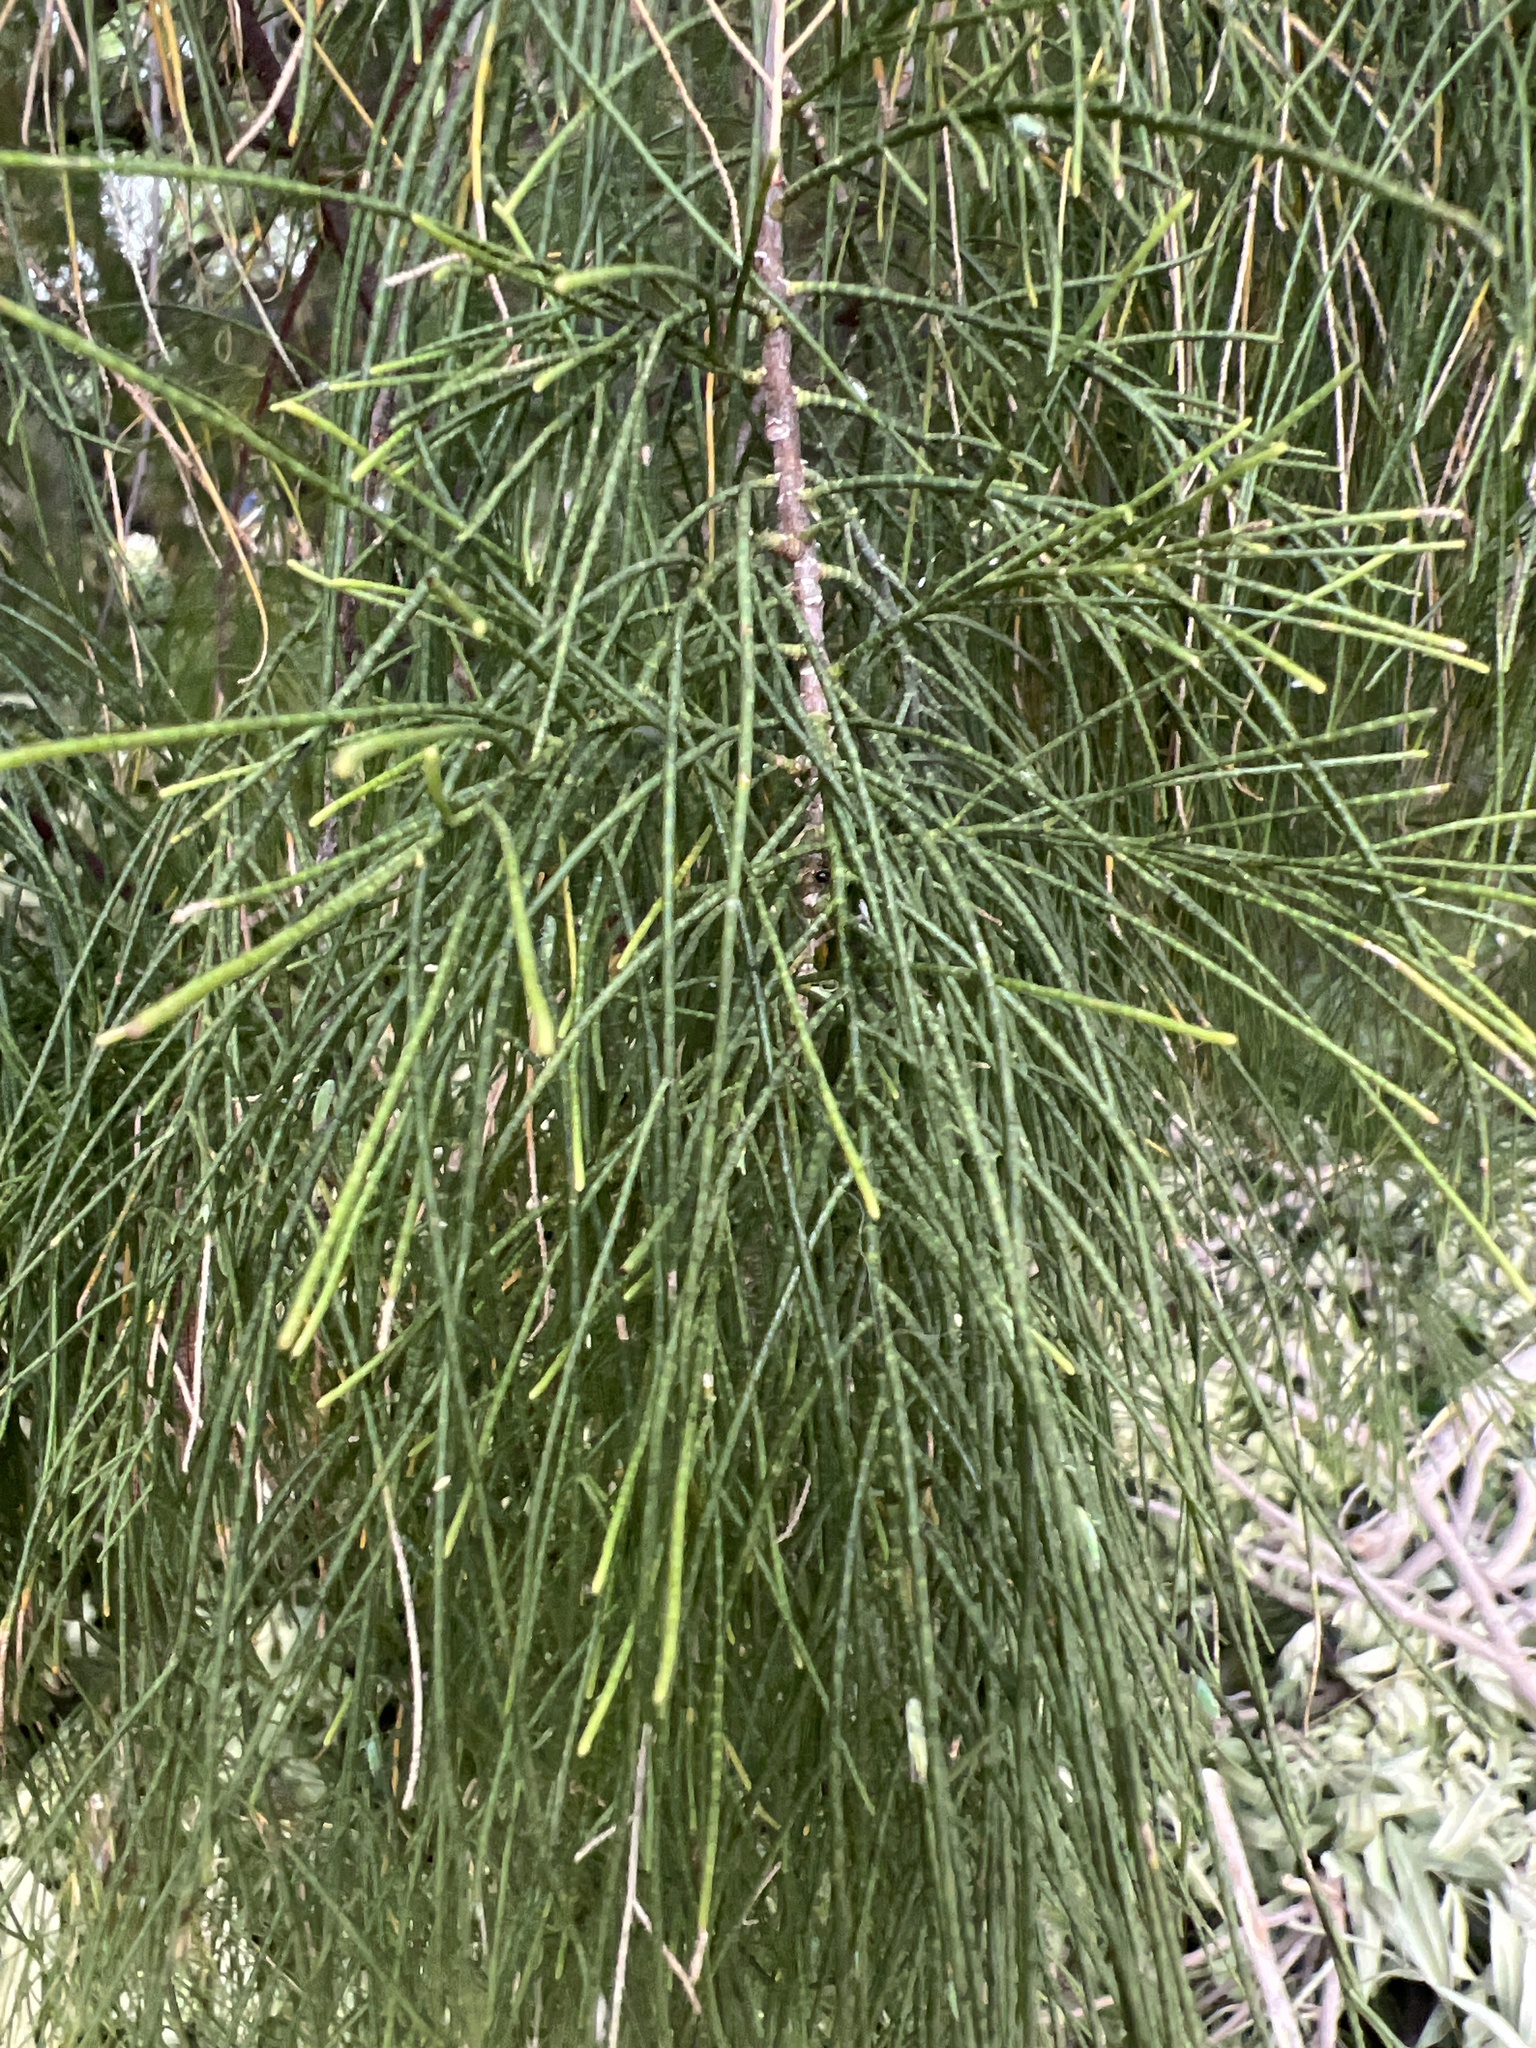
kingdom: Plantae
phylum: Tracheophyta
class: Magnoliopsida
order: Caryophyllales
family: Tamaricaceae
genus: Tamarix
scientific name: Tamarix aphylla
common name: Athel tamarisk
